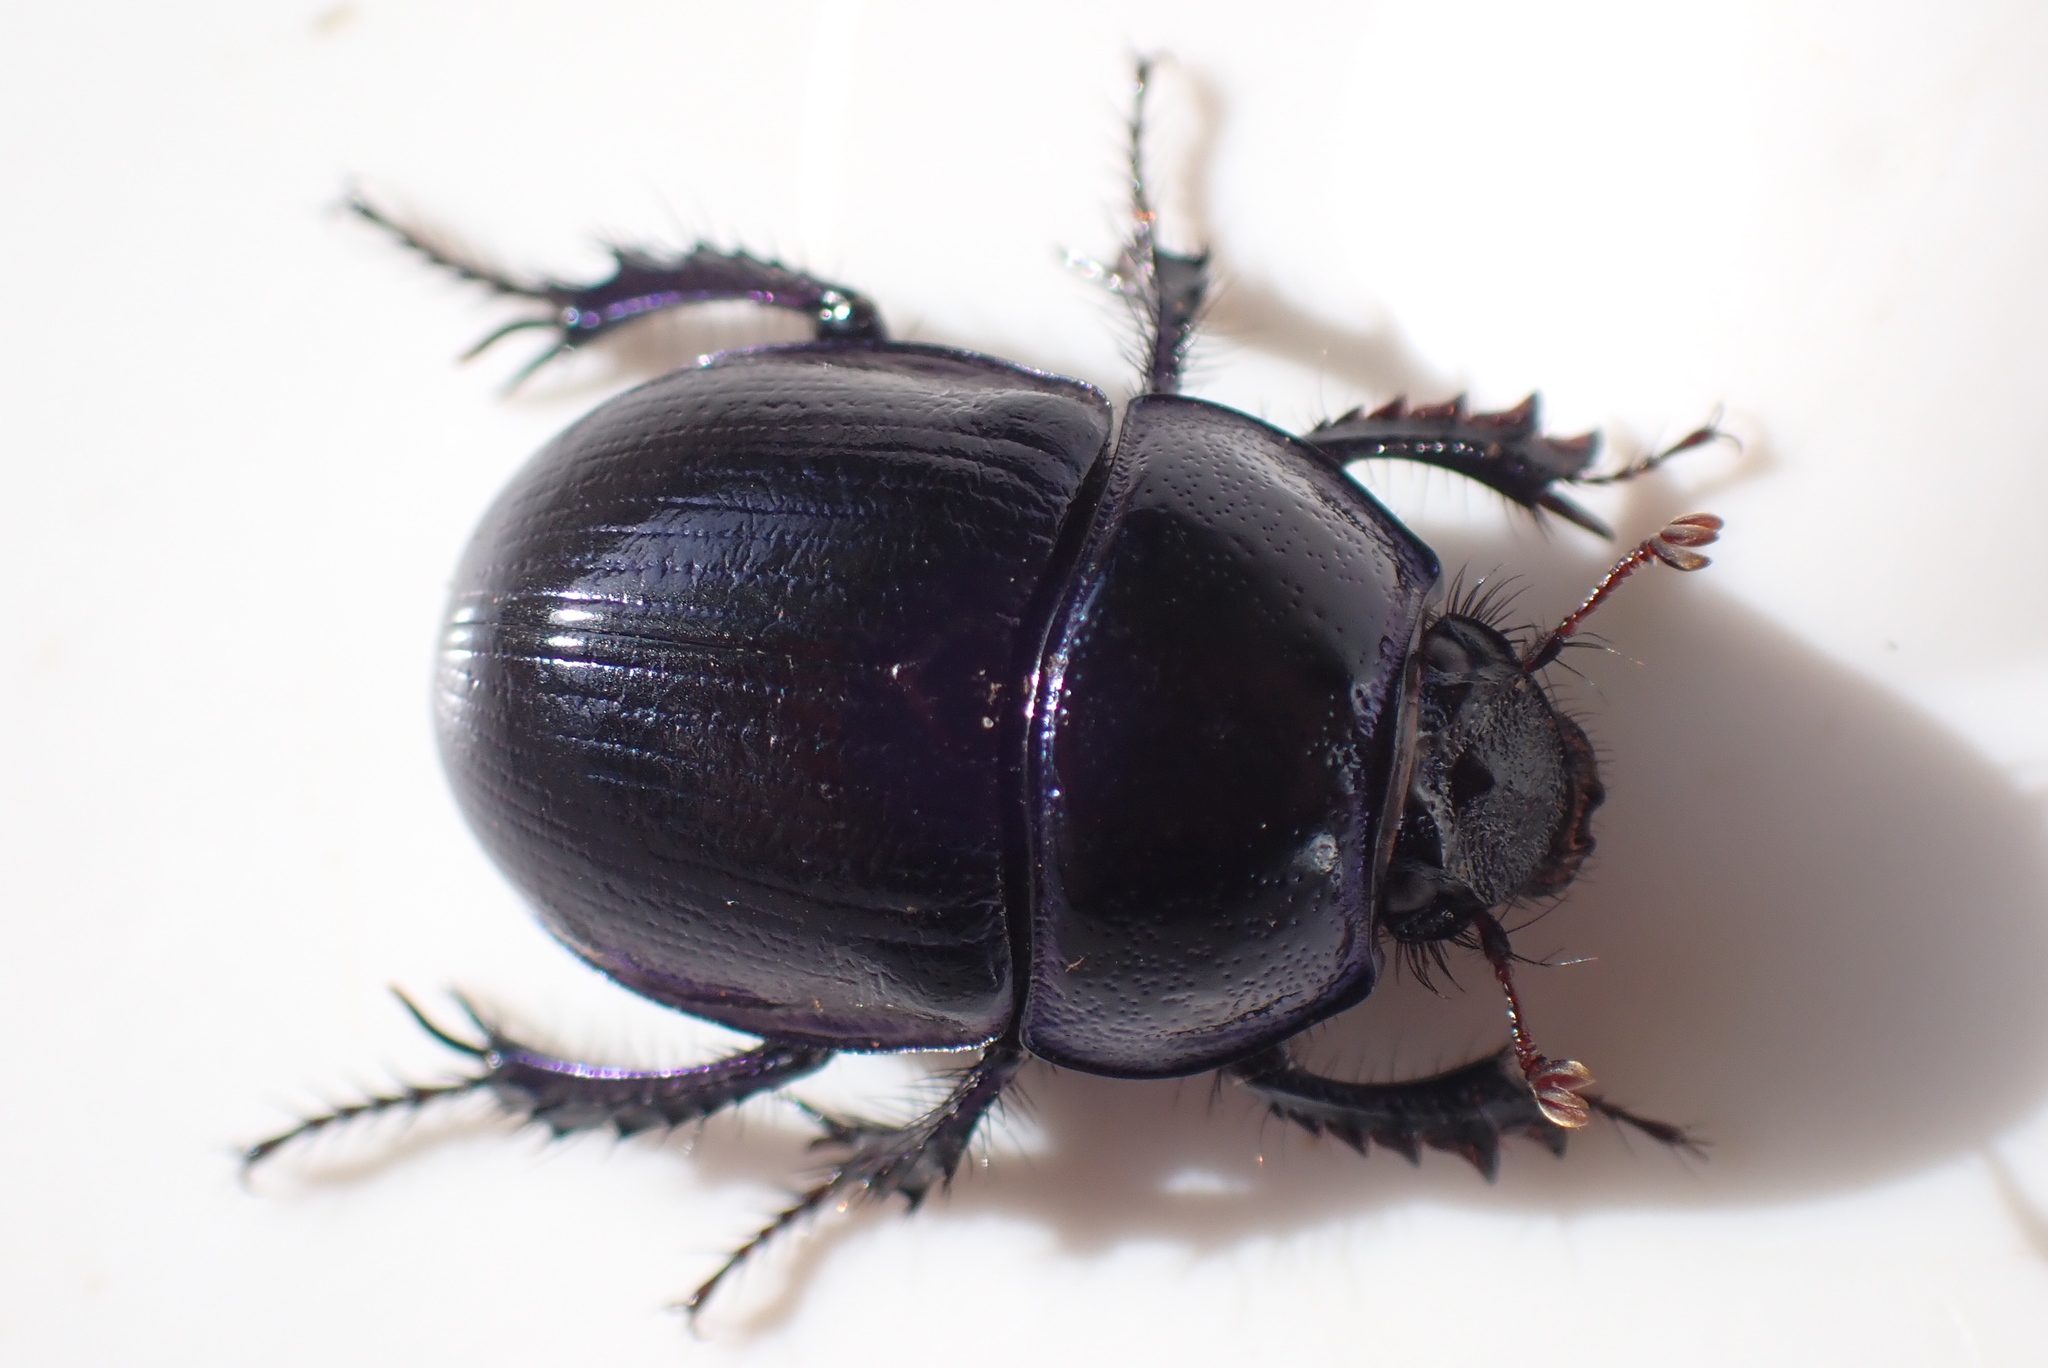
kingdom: Animalia
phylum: Arthropoda
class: Insecta
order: Coleoptera
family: Geotrupidae
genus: Anoplotrupes
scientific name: Anoplotrupes stercorosus
